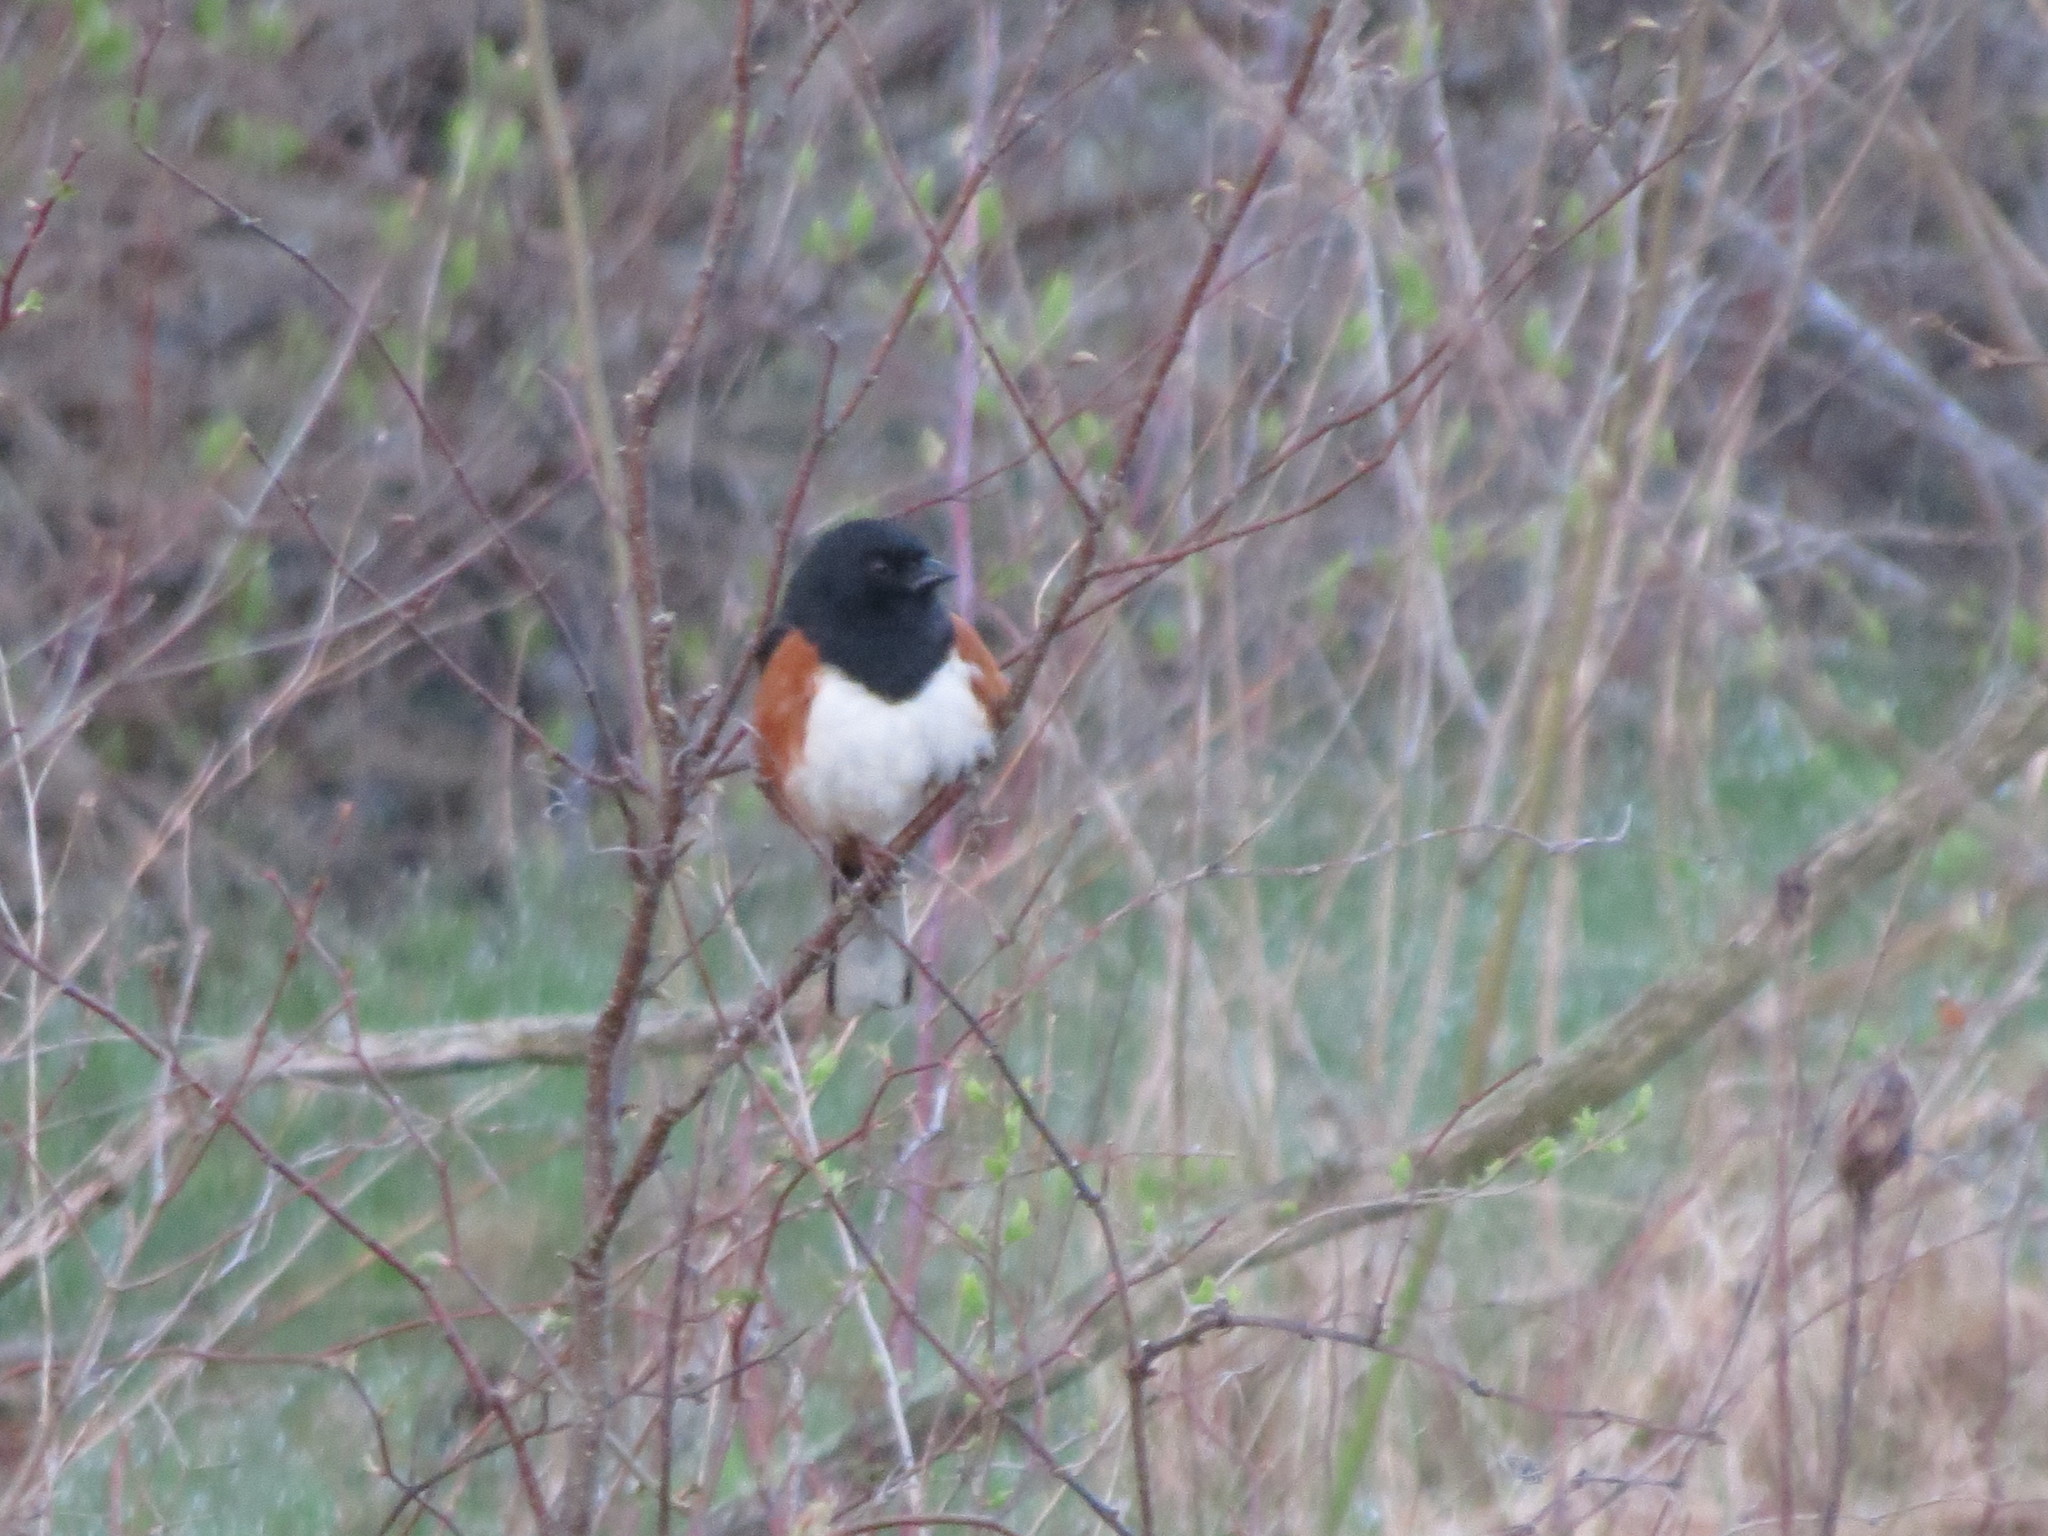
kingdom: Animalia
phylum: Chordata
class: Aves
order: Passeriformes
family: Passerellidae
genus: Pipilo
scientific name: Pipilo erythrophthalmus
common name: Eastern towhee
